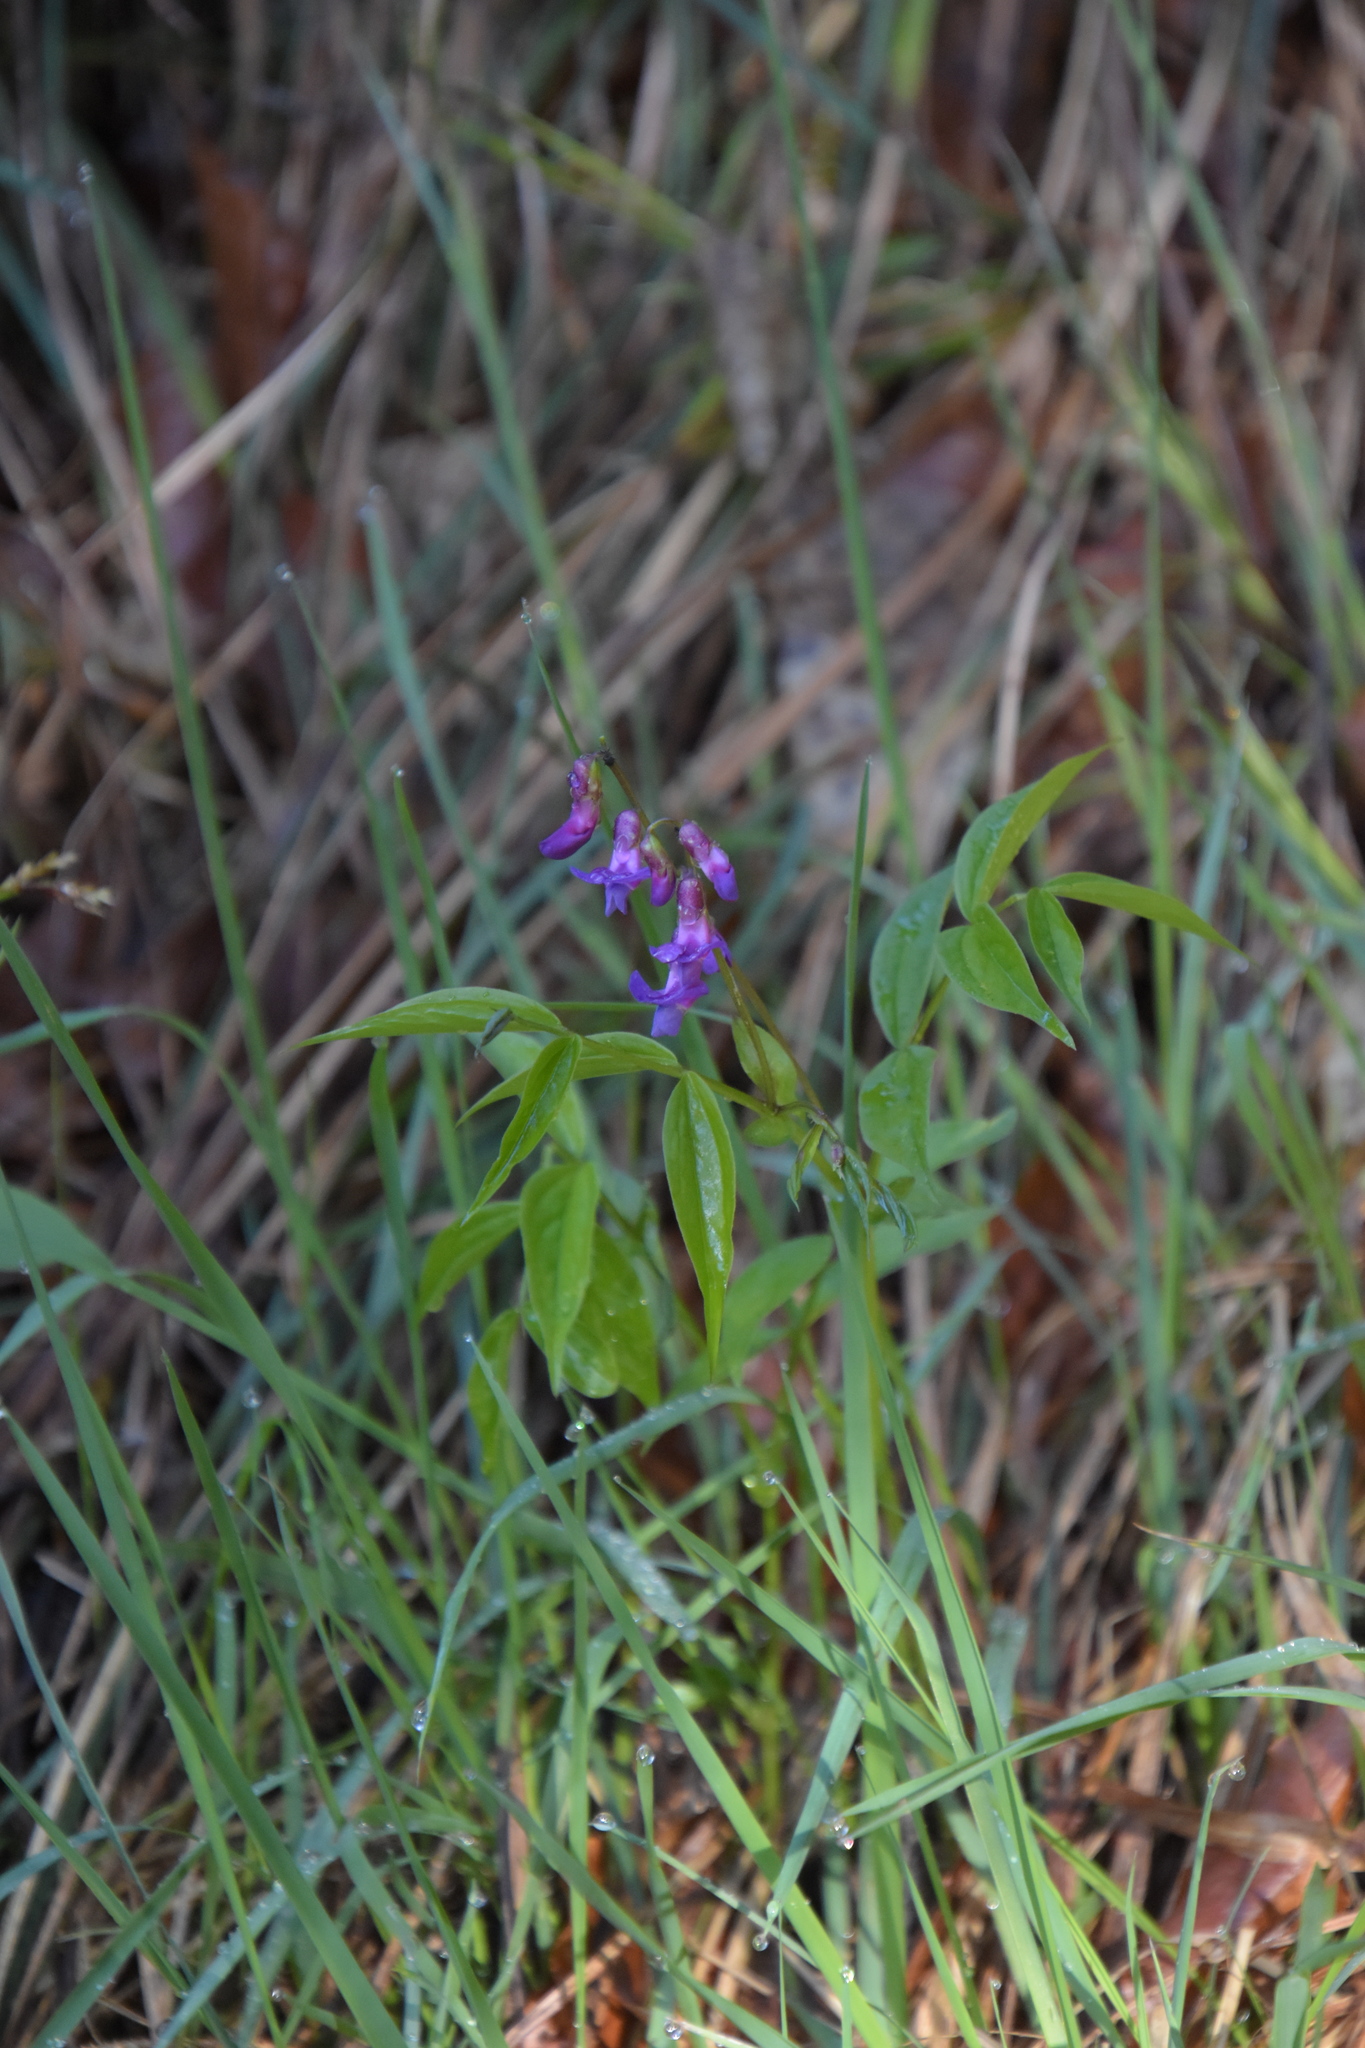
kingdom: Plantae
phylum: Tracheophyta
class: Magnoliopsida
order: Fabales
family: Fabaceae
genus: Lathyrus
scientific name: Lathyrus vernus
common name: Spring pea
